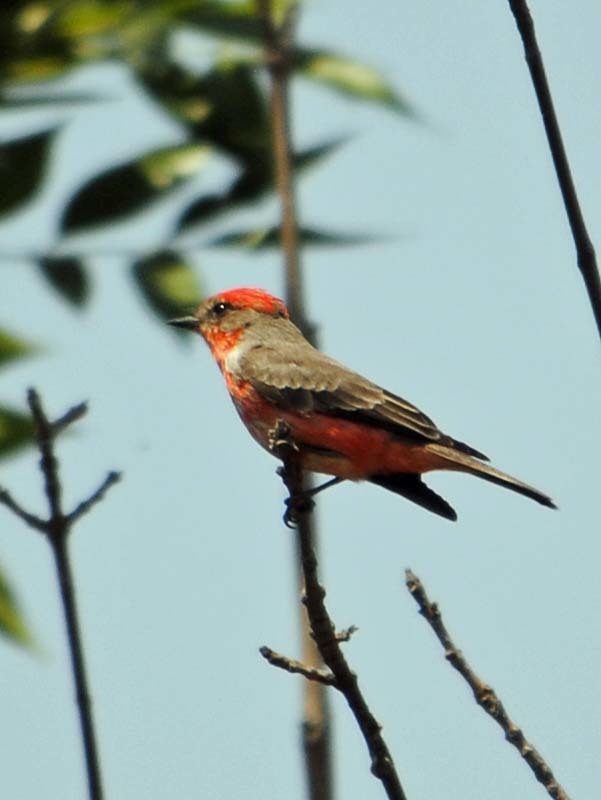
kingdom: Animalia
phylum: Chordata
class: Aves
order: Passeriformes
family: Tyrannidae
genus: Pyrocephalus
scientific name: Pyrocephalus rubinus
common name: Vermilion flycatcher
